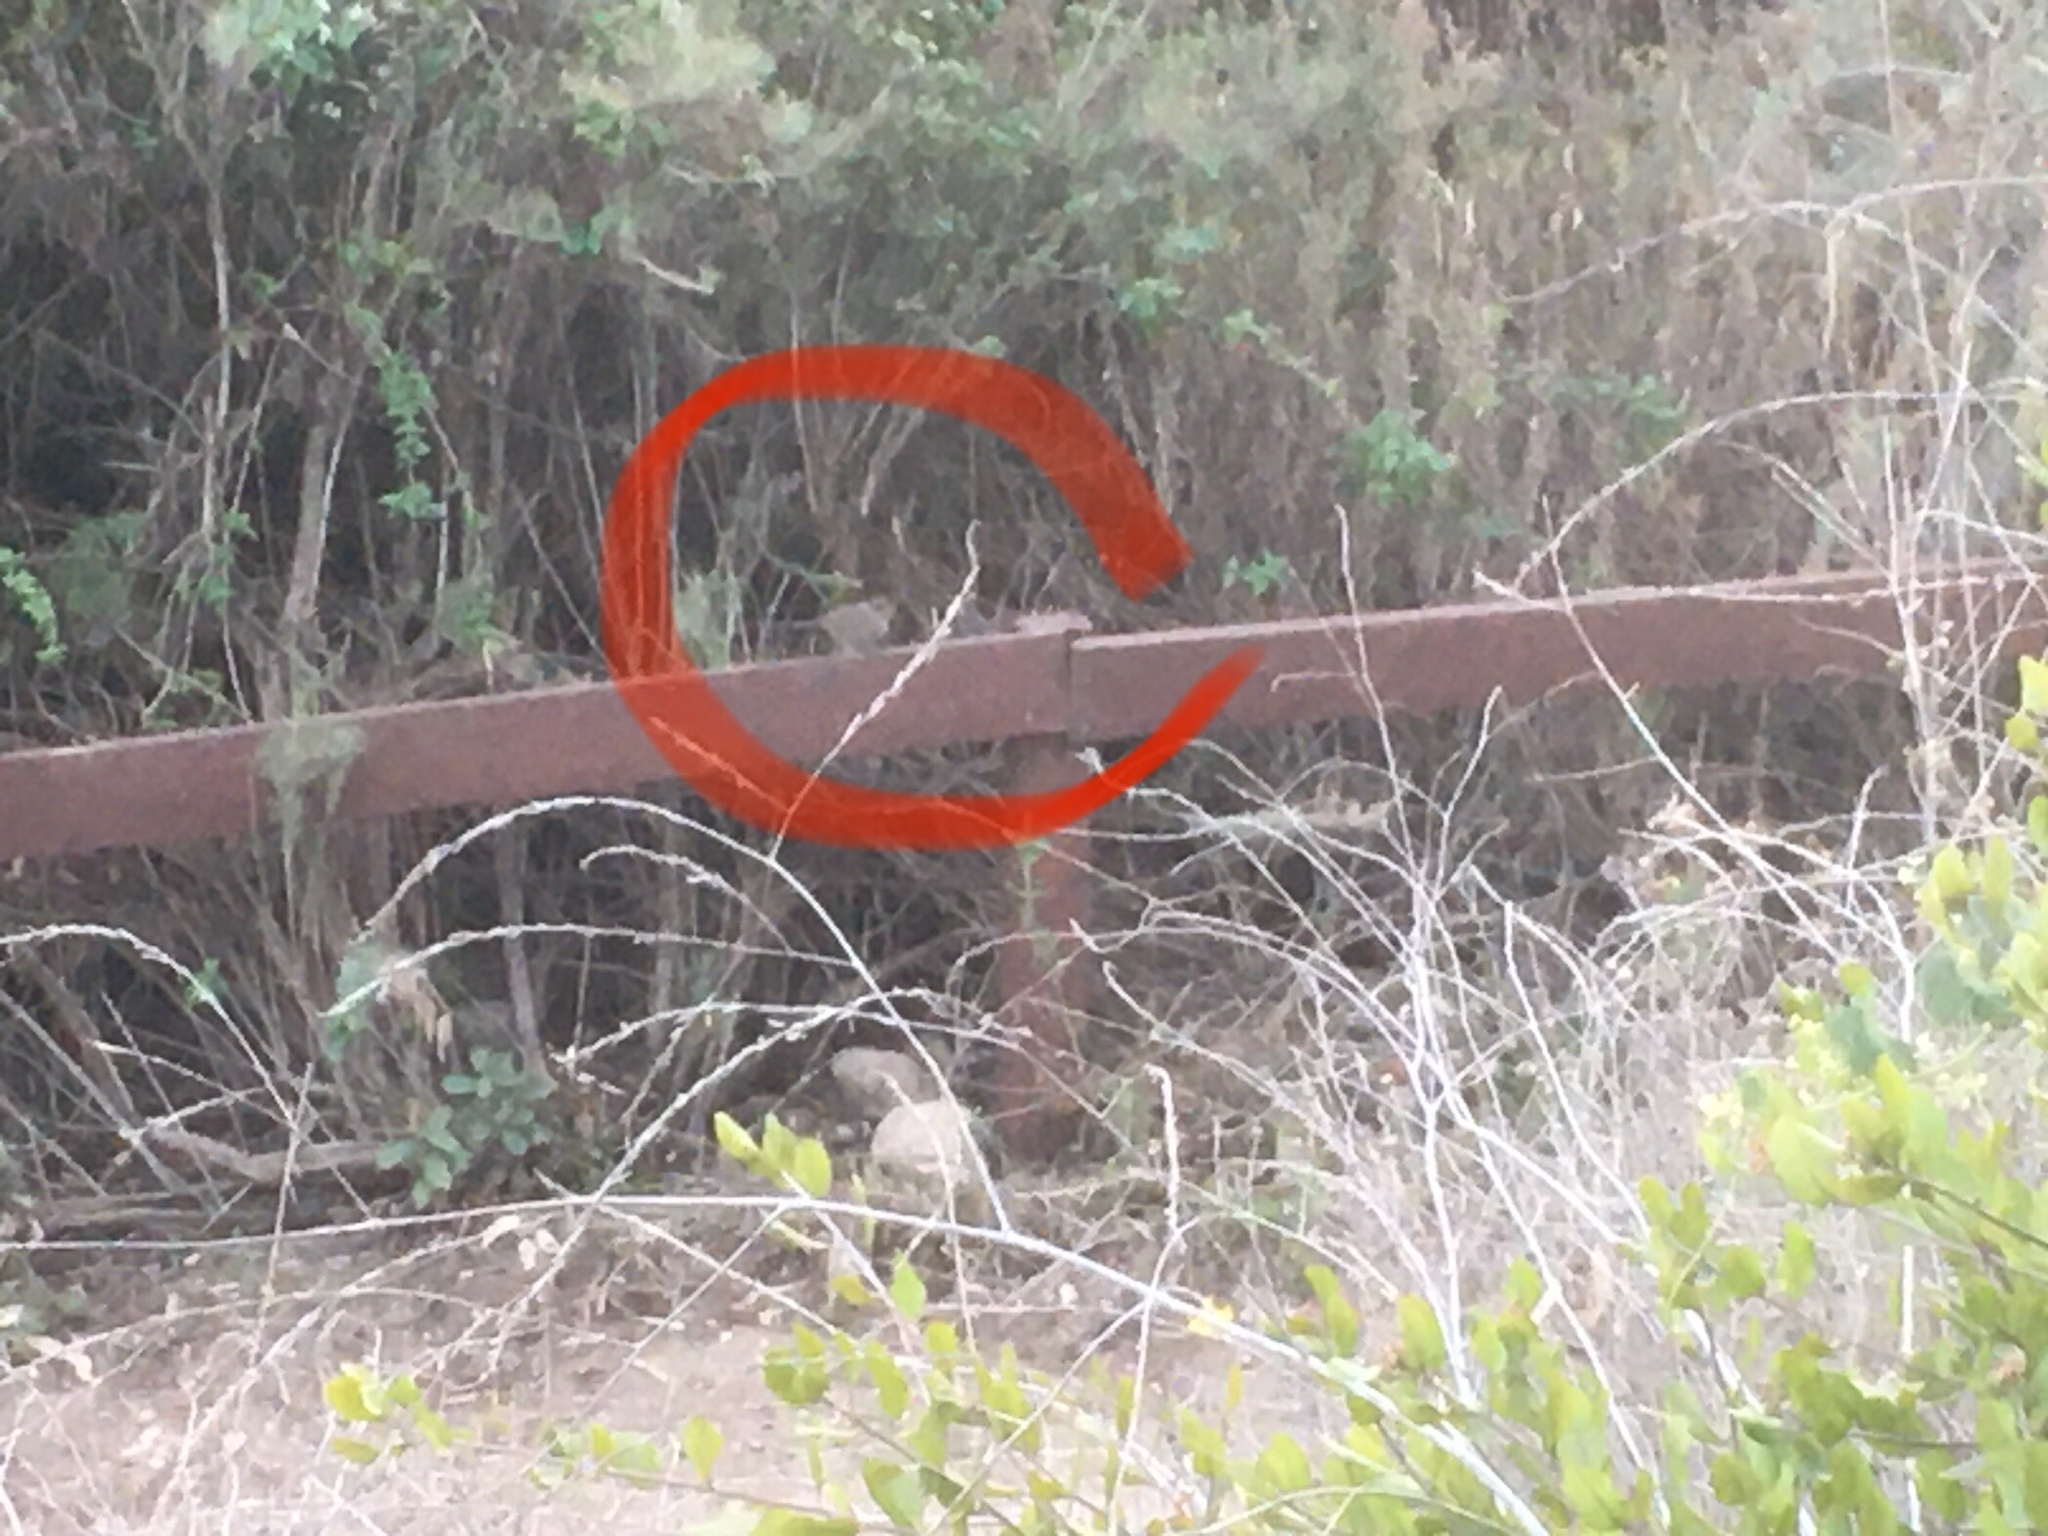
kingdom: Animalia
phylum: Chordata
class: Aves
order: Passeriformes
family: Passerellidae
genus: Melozone
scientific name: Melozone crissalis
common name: California towhee
